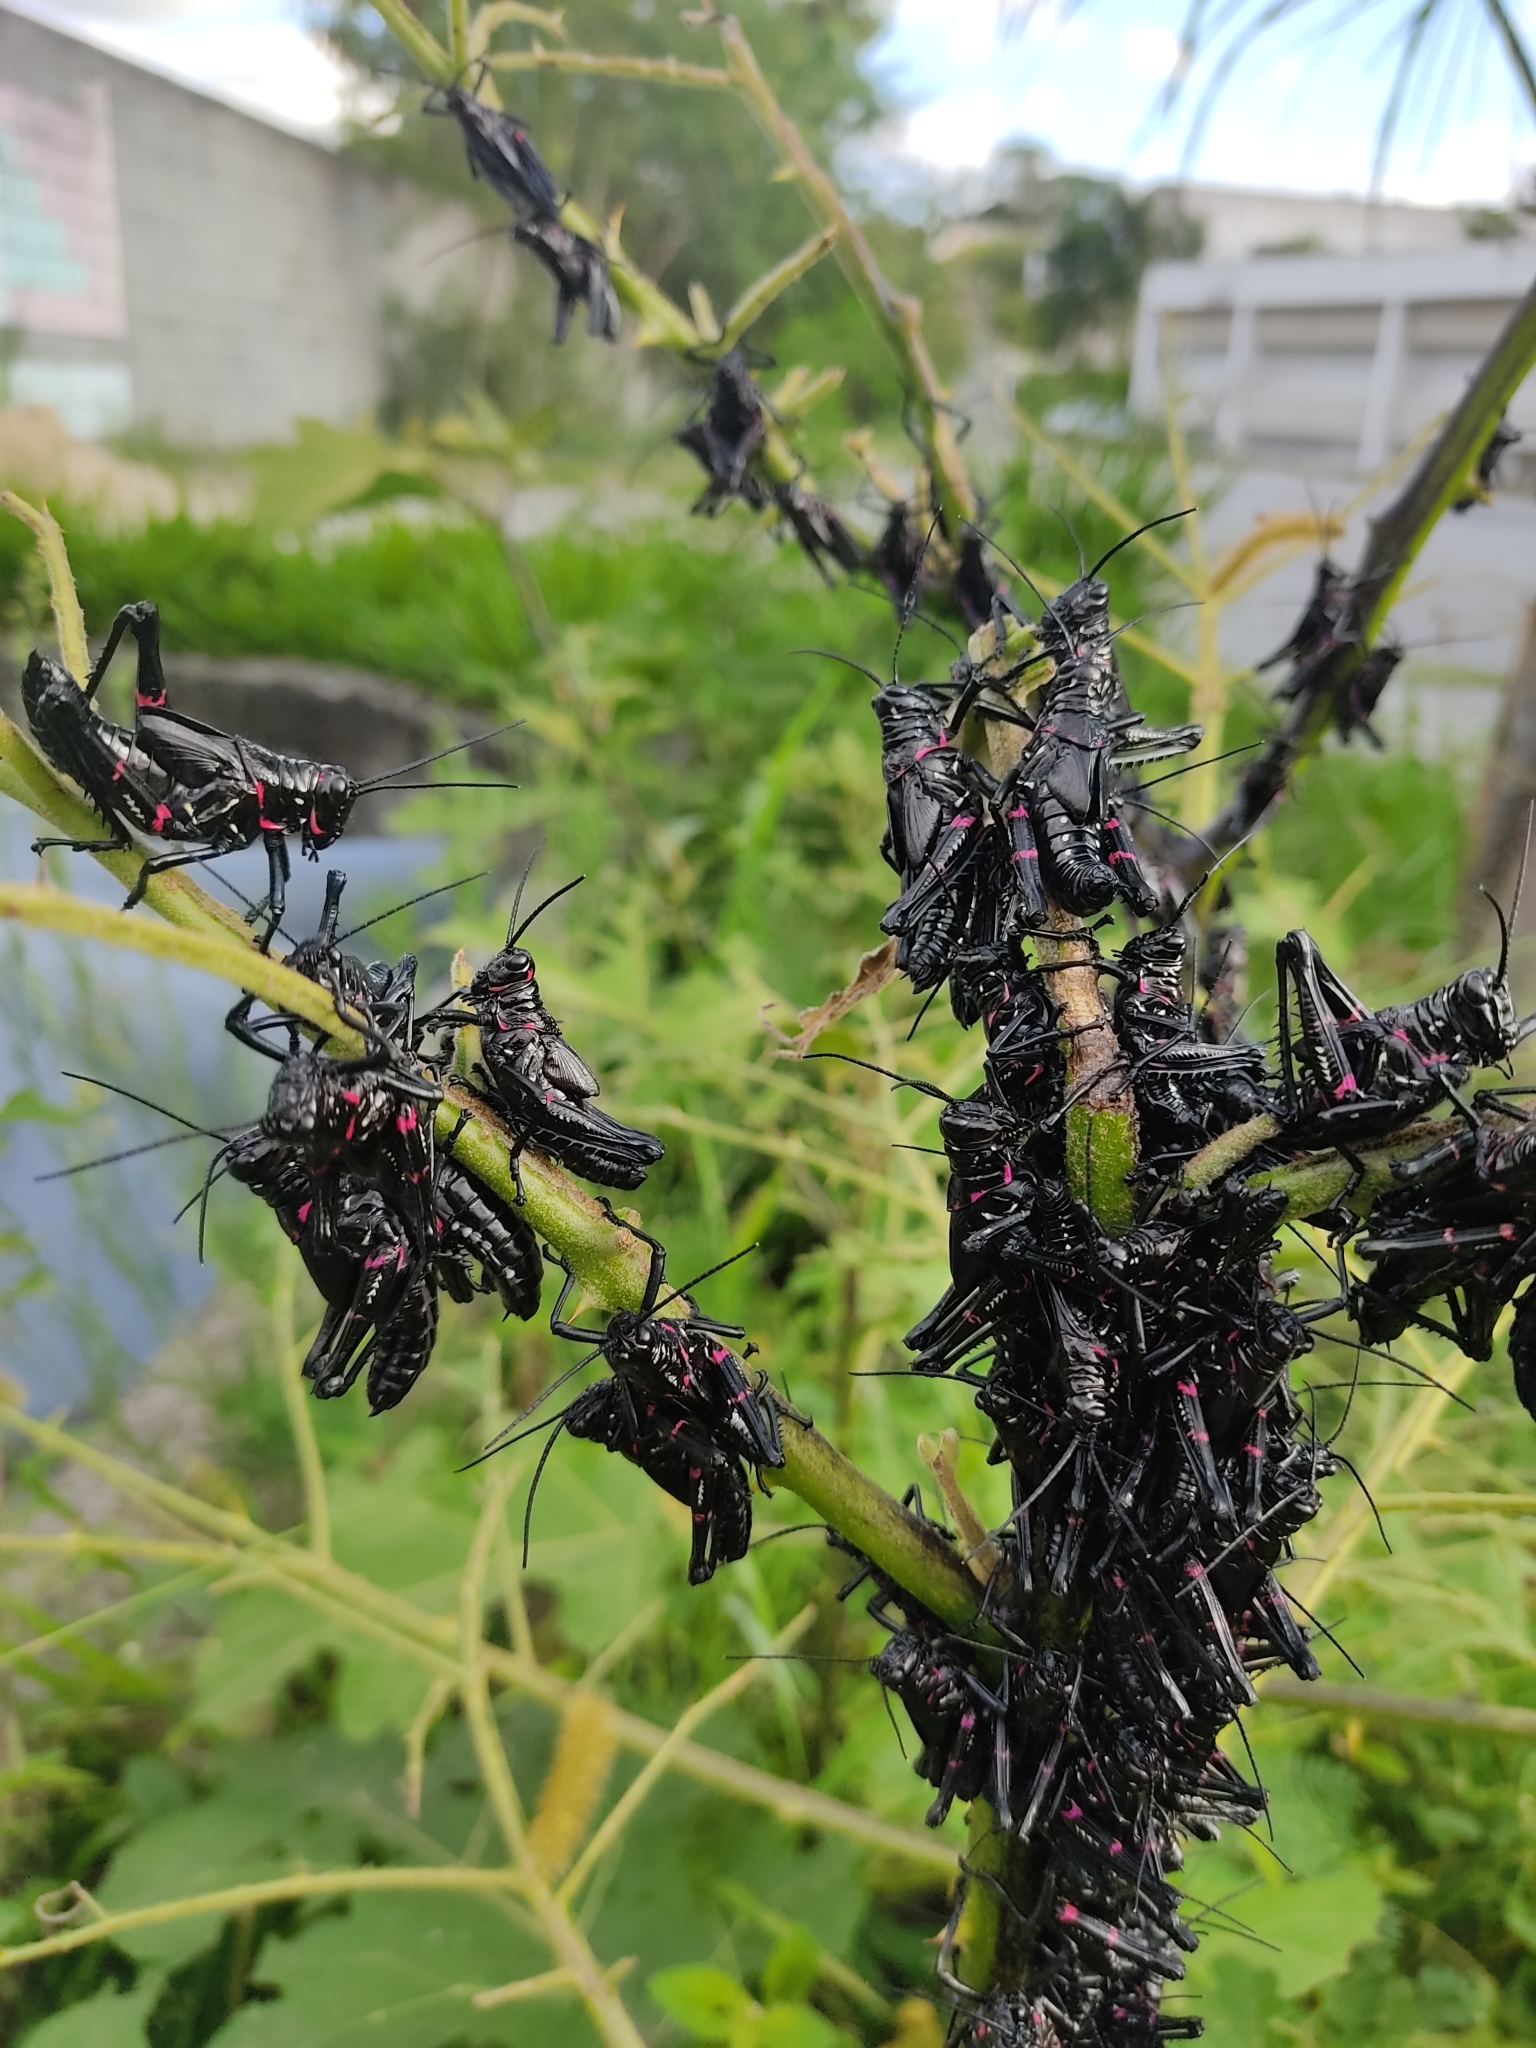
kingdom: Animalia
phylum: Arthropoda
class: Insecta
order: Orthoptera
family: Romaleidae
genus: Chromacris
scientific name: Chromacris speciosa
